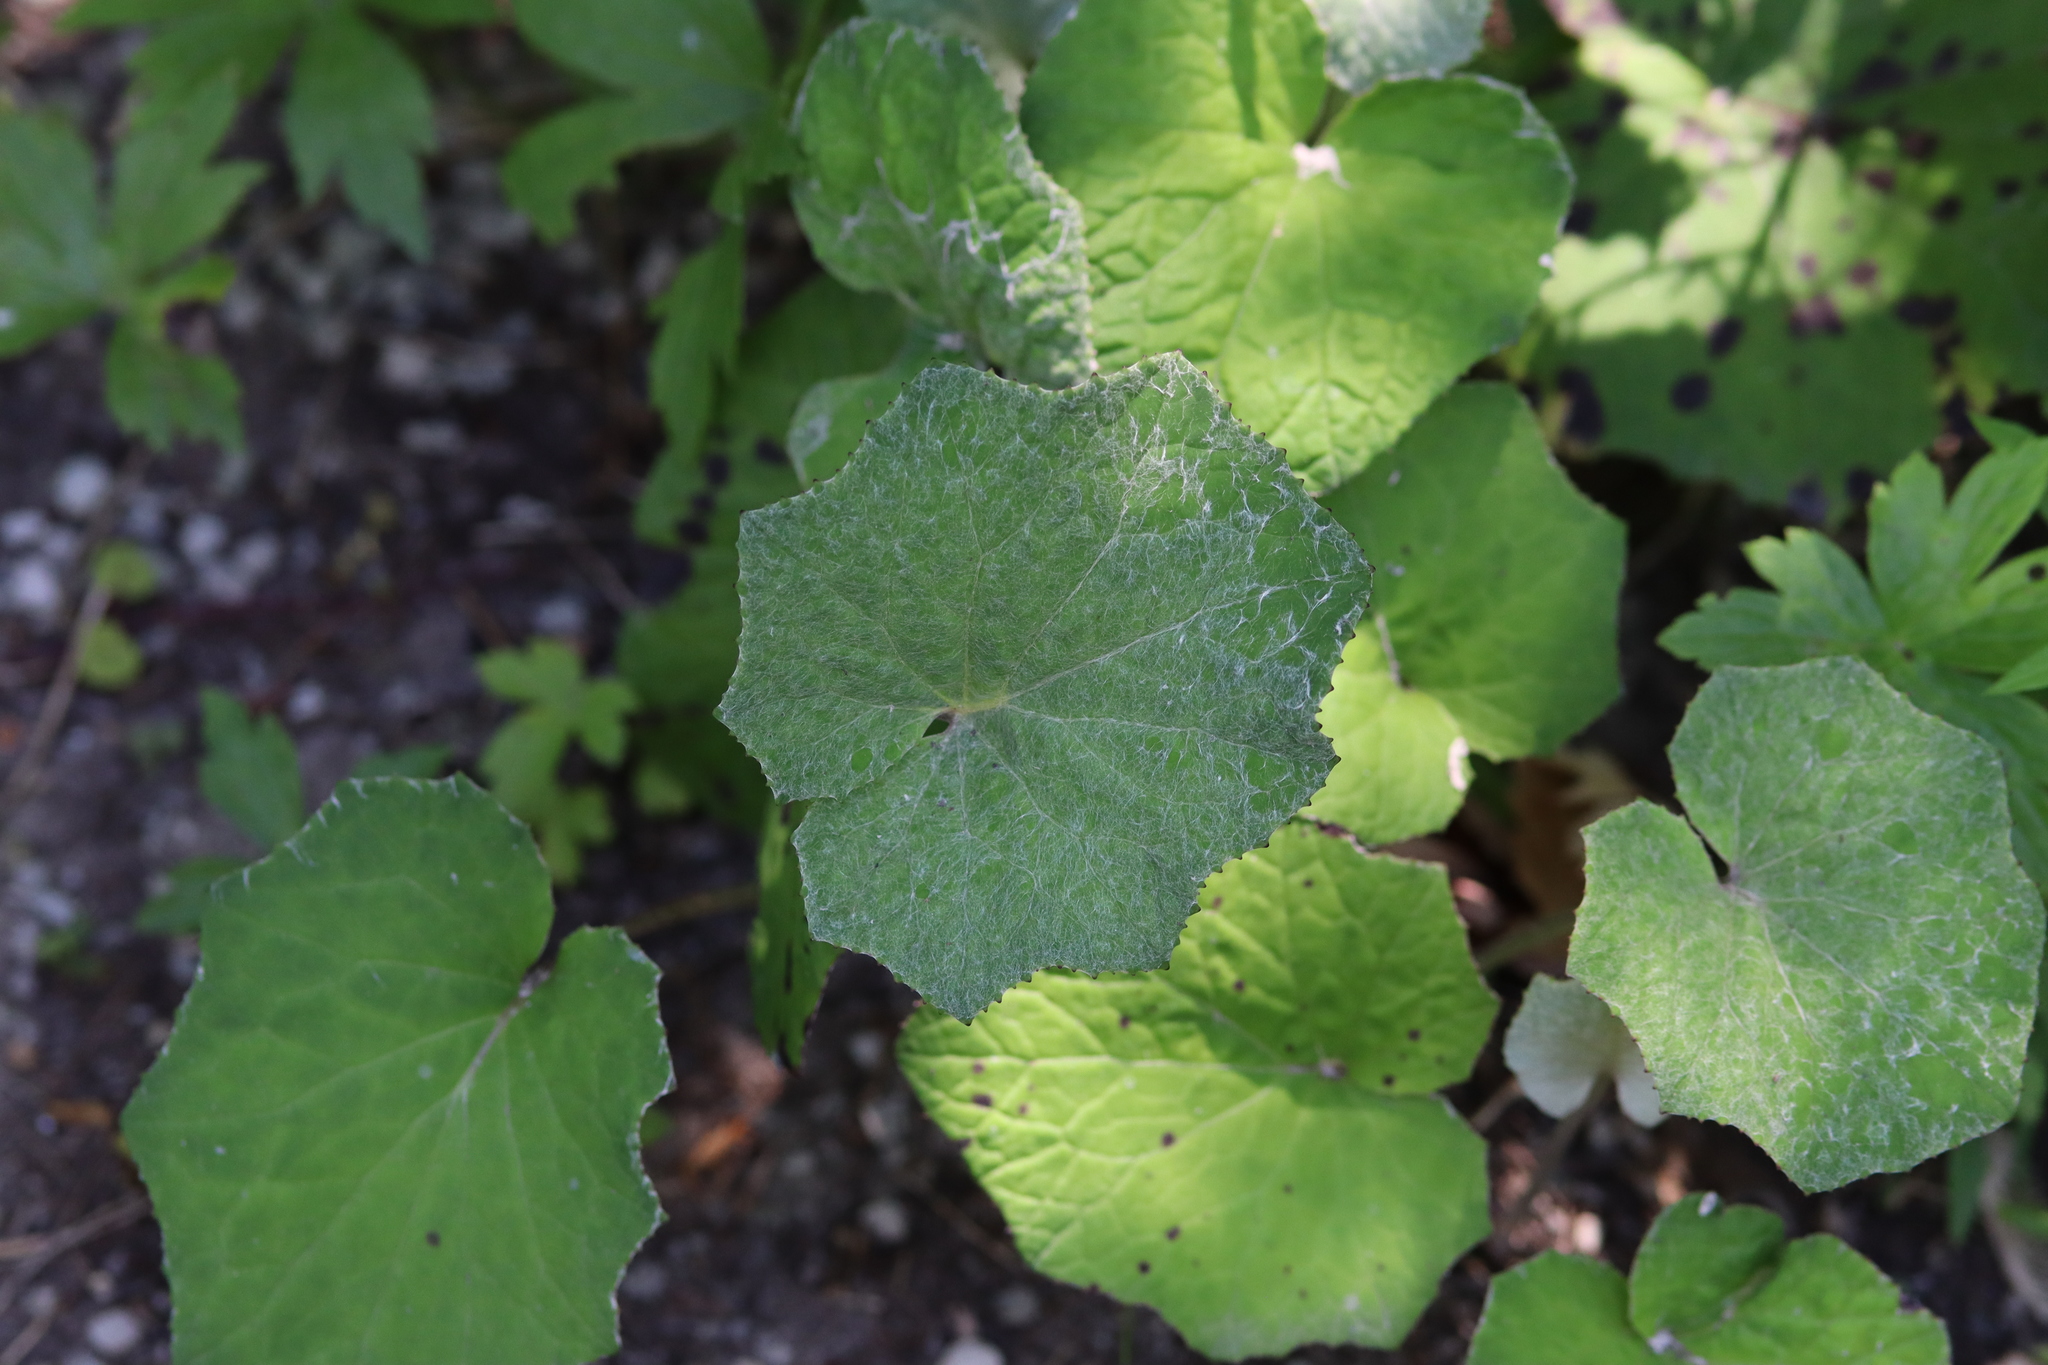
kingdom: Plantae
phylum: Tracheophyta
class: Magnoliopsida
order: Asterales
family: Asteraceae
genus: Tussilago
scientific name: Tussilago farfara
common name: Coltsfoot
